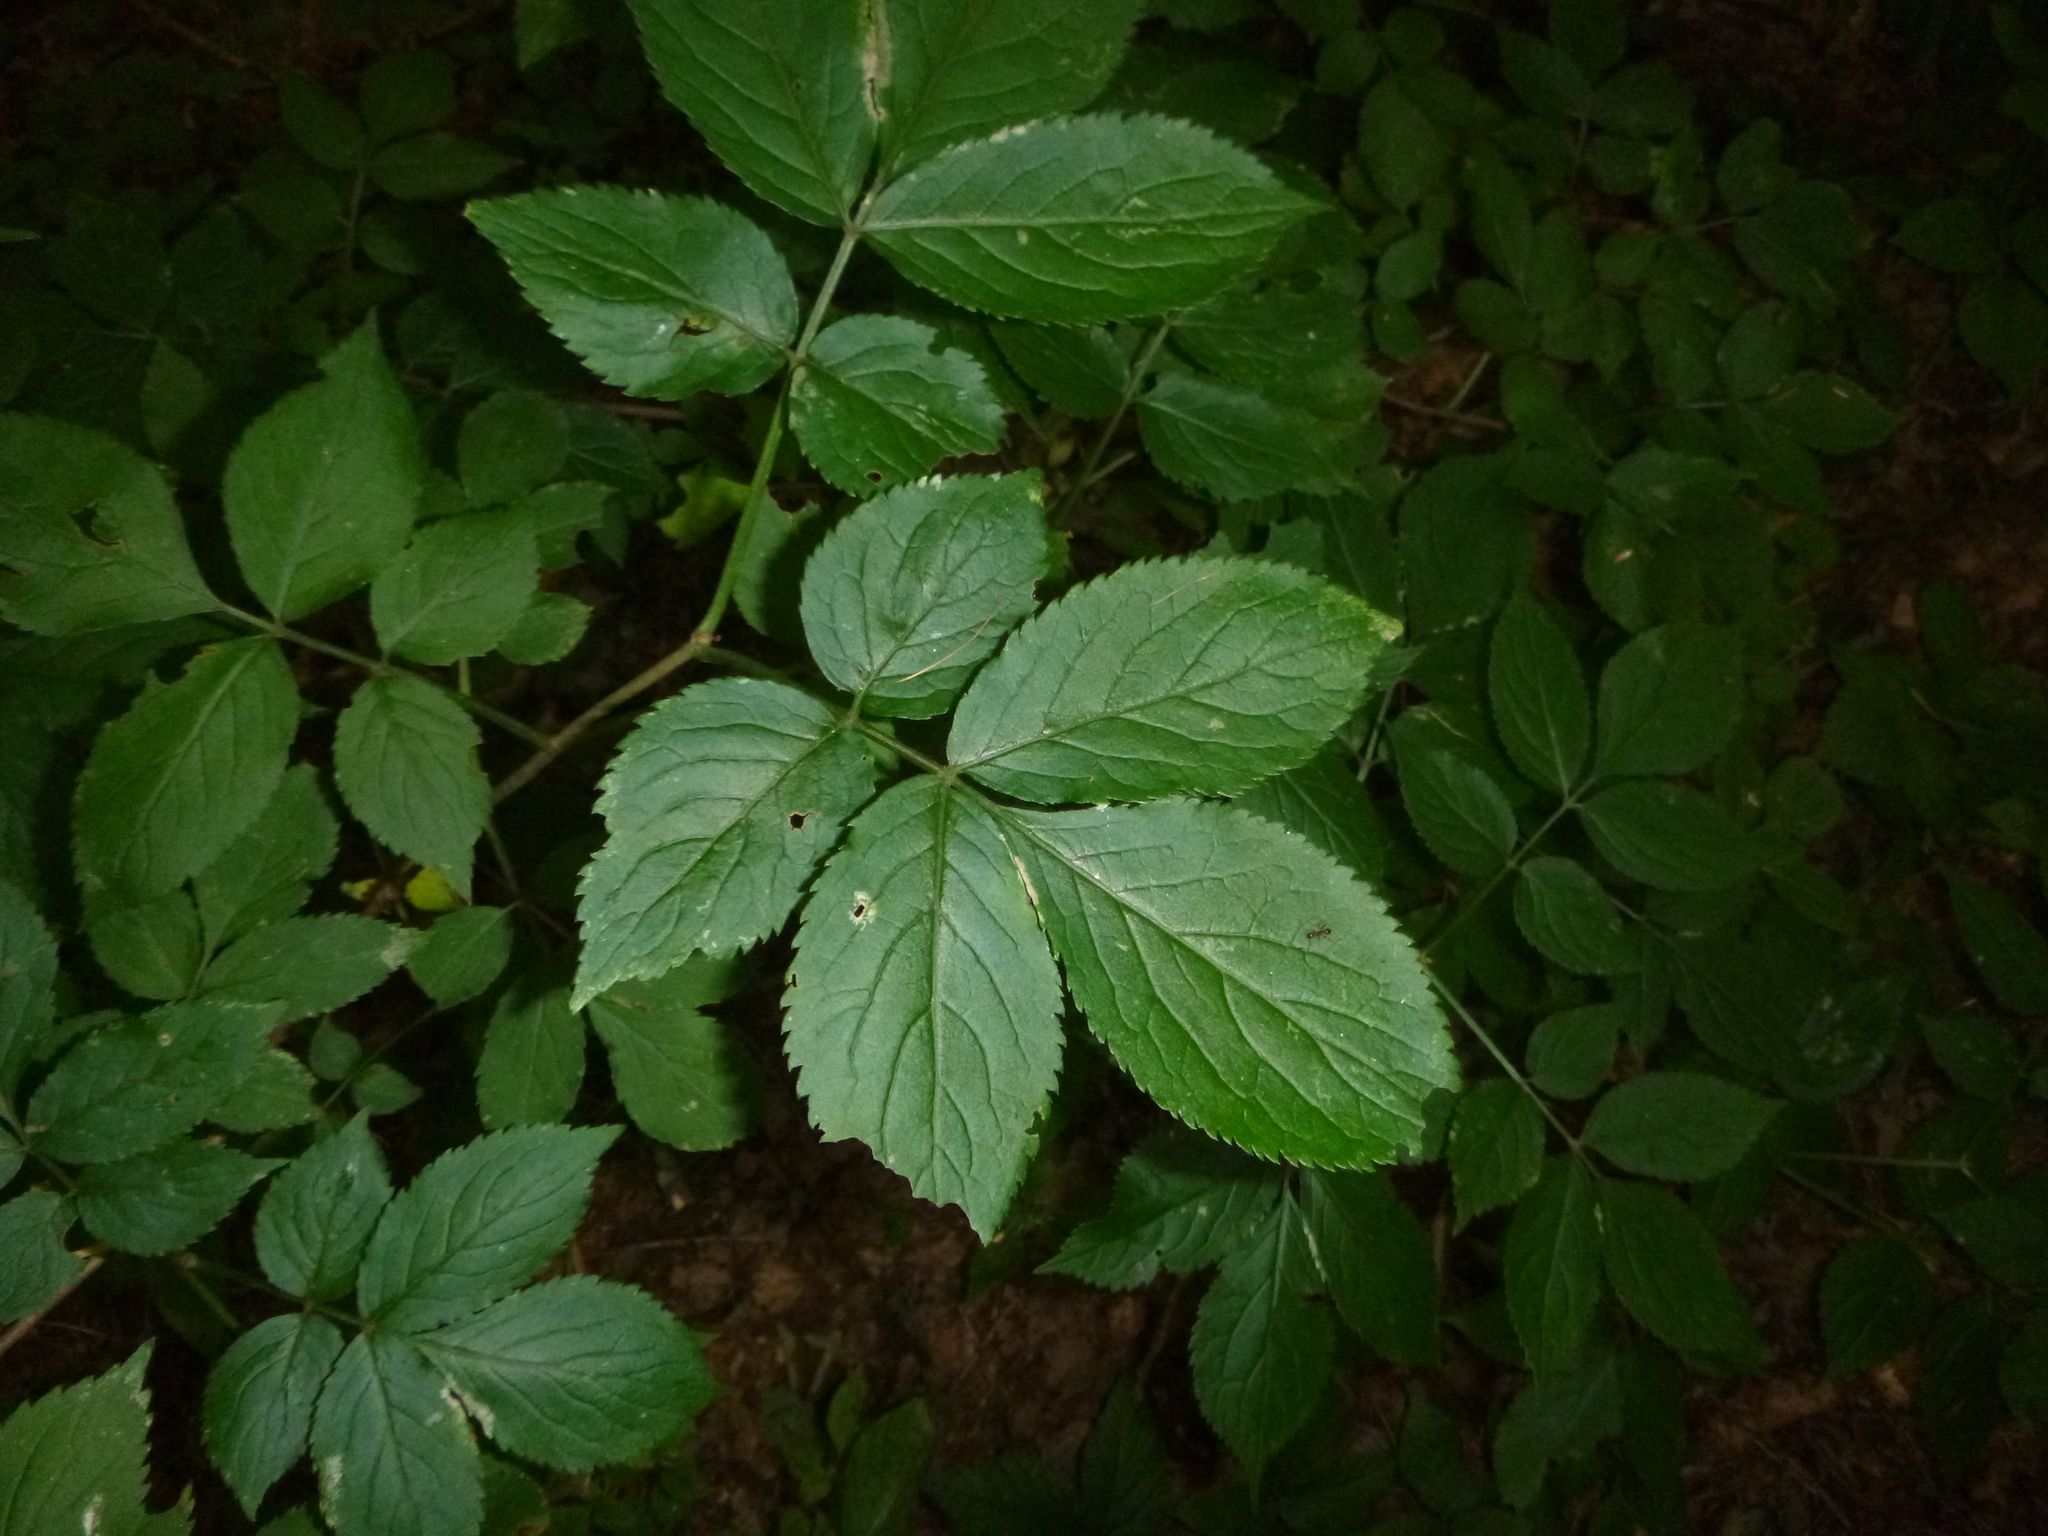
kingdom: Plantae
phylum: Tracheophyta
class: Magnoliopsida
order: Dipsacales
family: Viburnaceae
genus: Sambucus
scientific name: Sambucus nigra
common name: Elder
